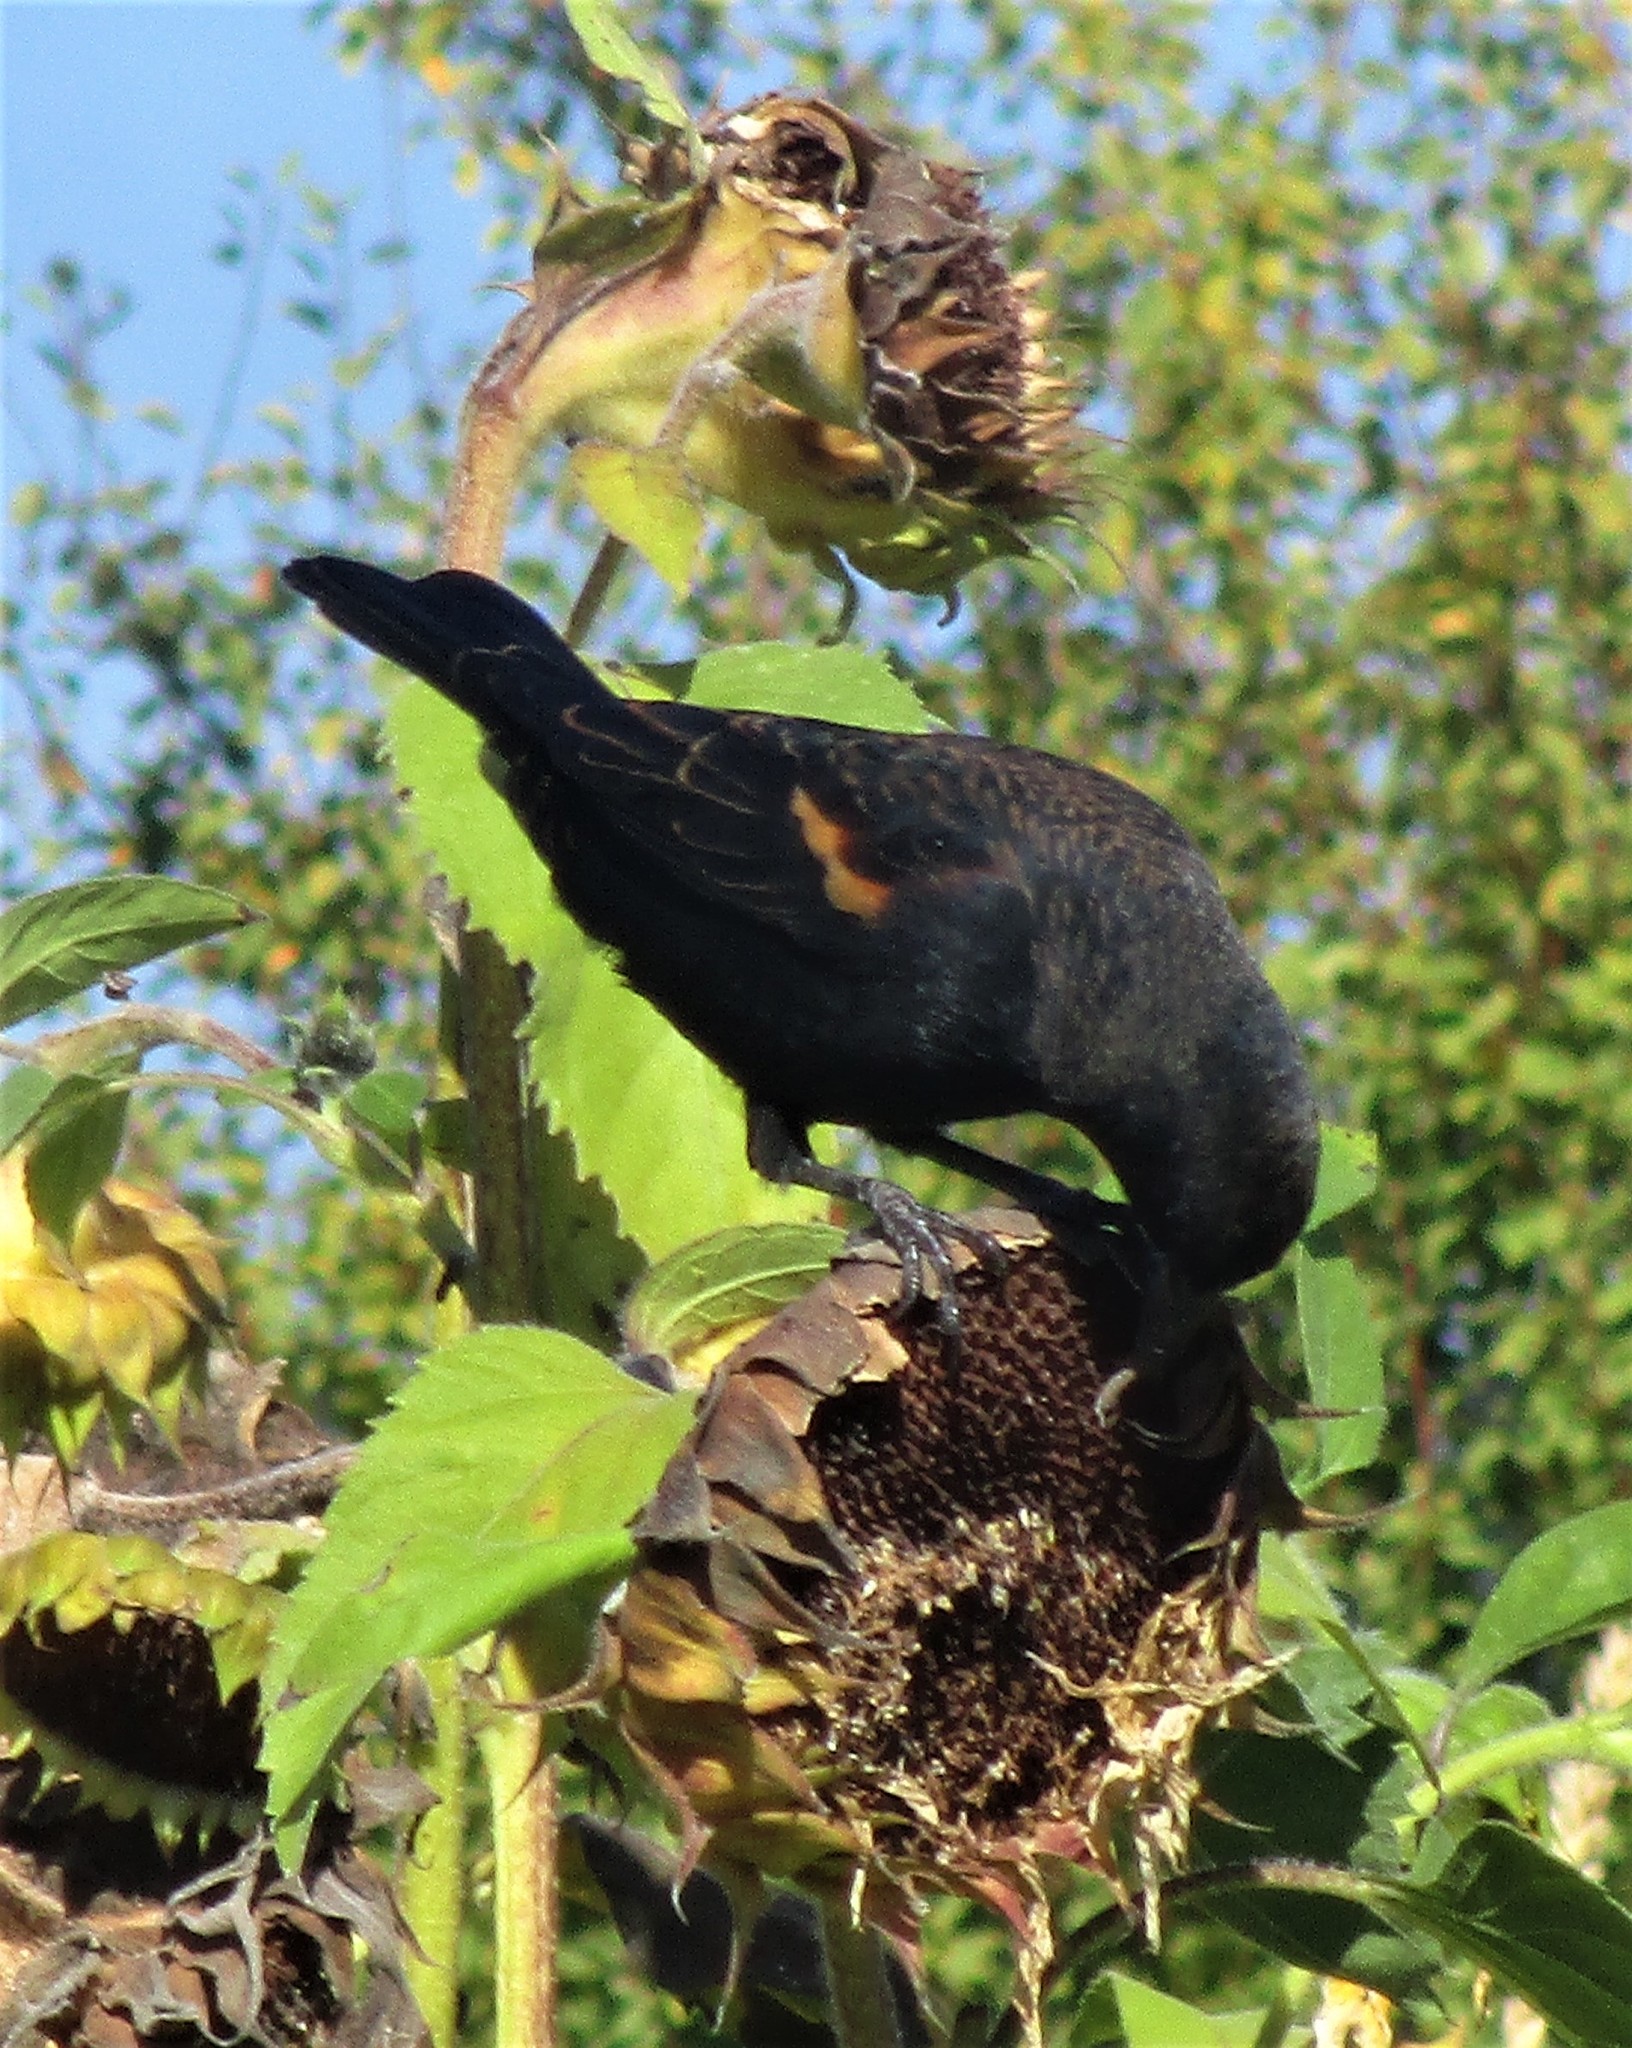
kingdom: Animalia
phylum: Chordata
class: Aves
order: Passeriformes
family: Icteridae
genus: Agelaius
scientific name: Agelaius phoeniceus
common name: Red-winged blackbird
